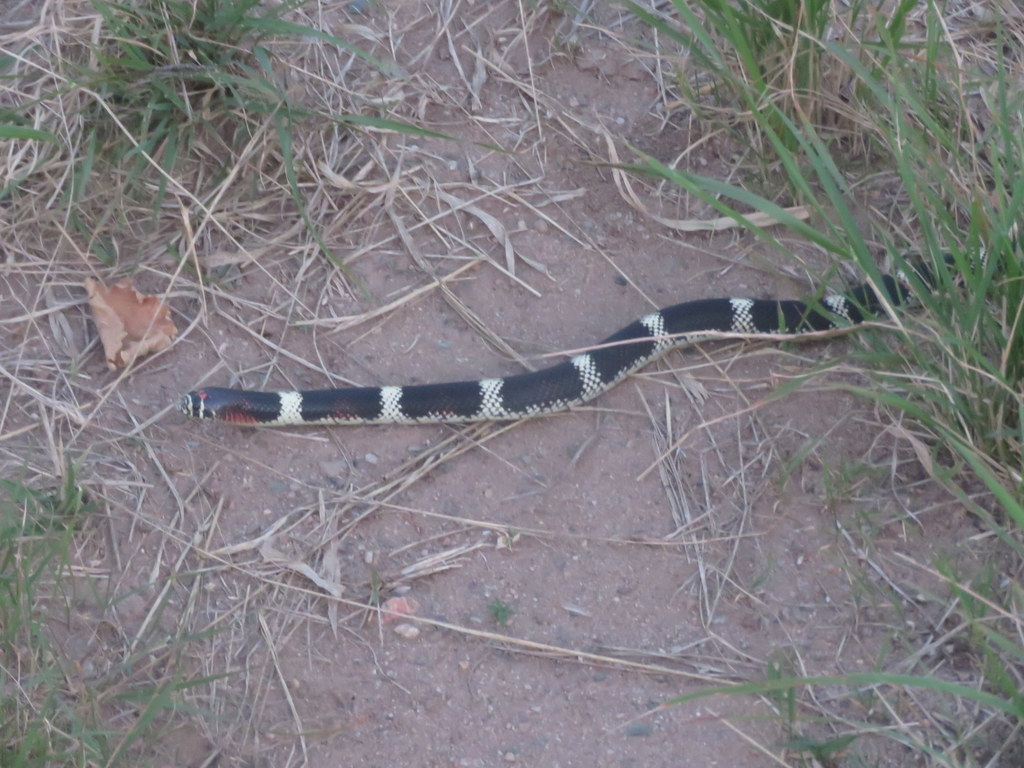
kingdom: Animalia
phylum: Chordata
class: Squamata
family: Colubridae
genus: Xenodon
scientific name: Xenodon semicinctus
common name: Ringed hognose snake
